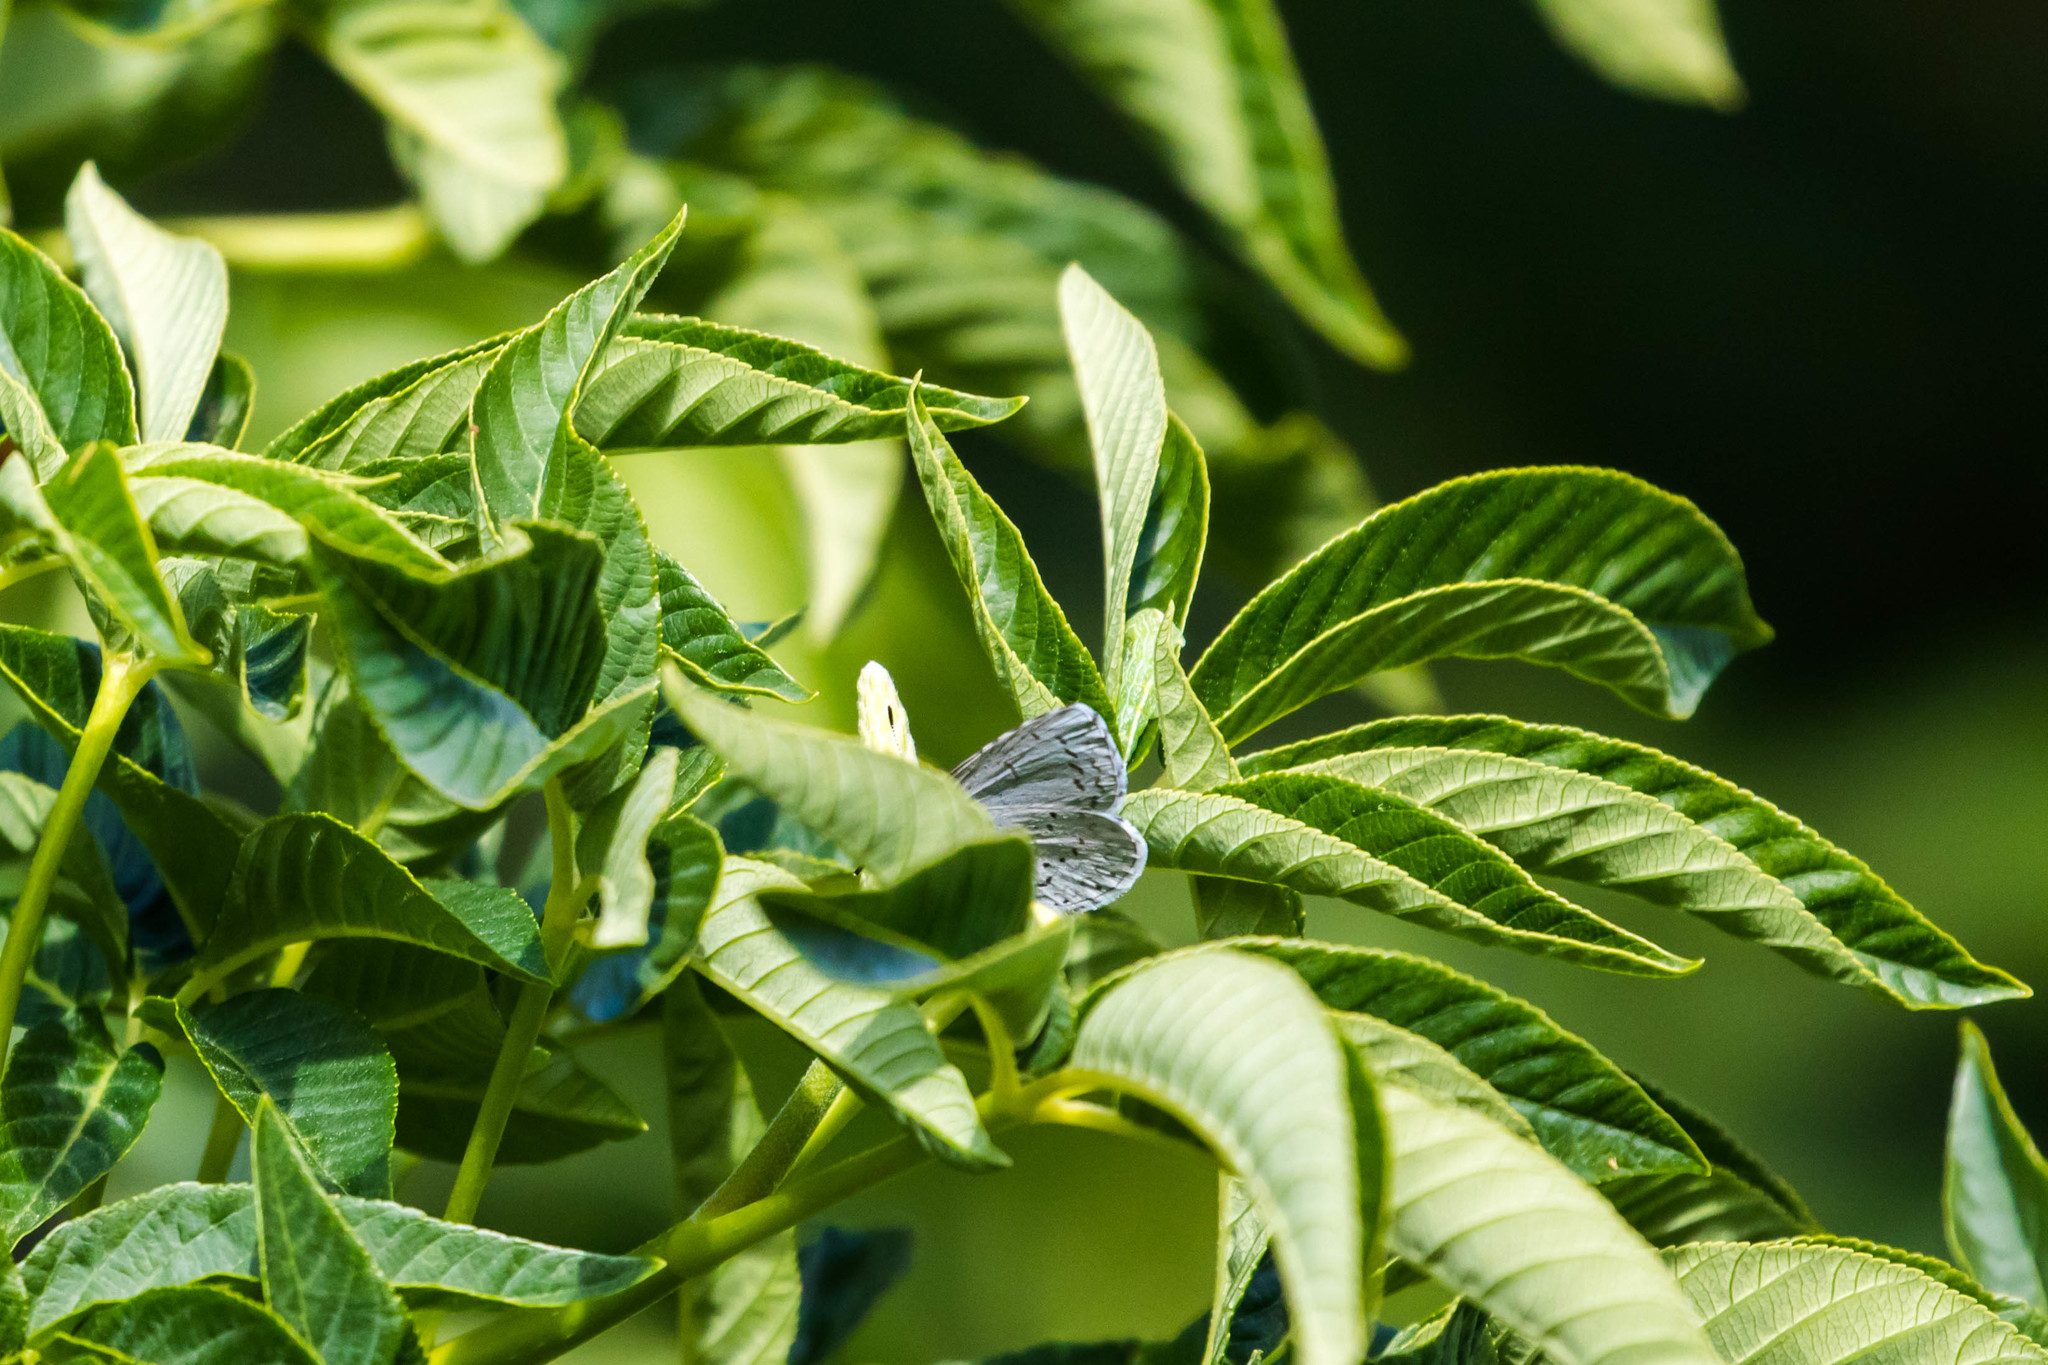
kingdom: Animalia
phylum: Arthropoda
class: Insecta
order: Lepidoptera
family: Lycaenidae
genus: Celastrina
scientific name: Celastrina ladon
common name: Spring azure
